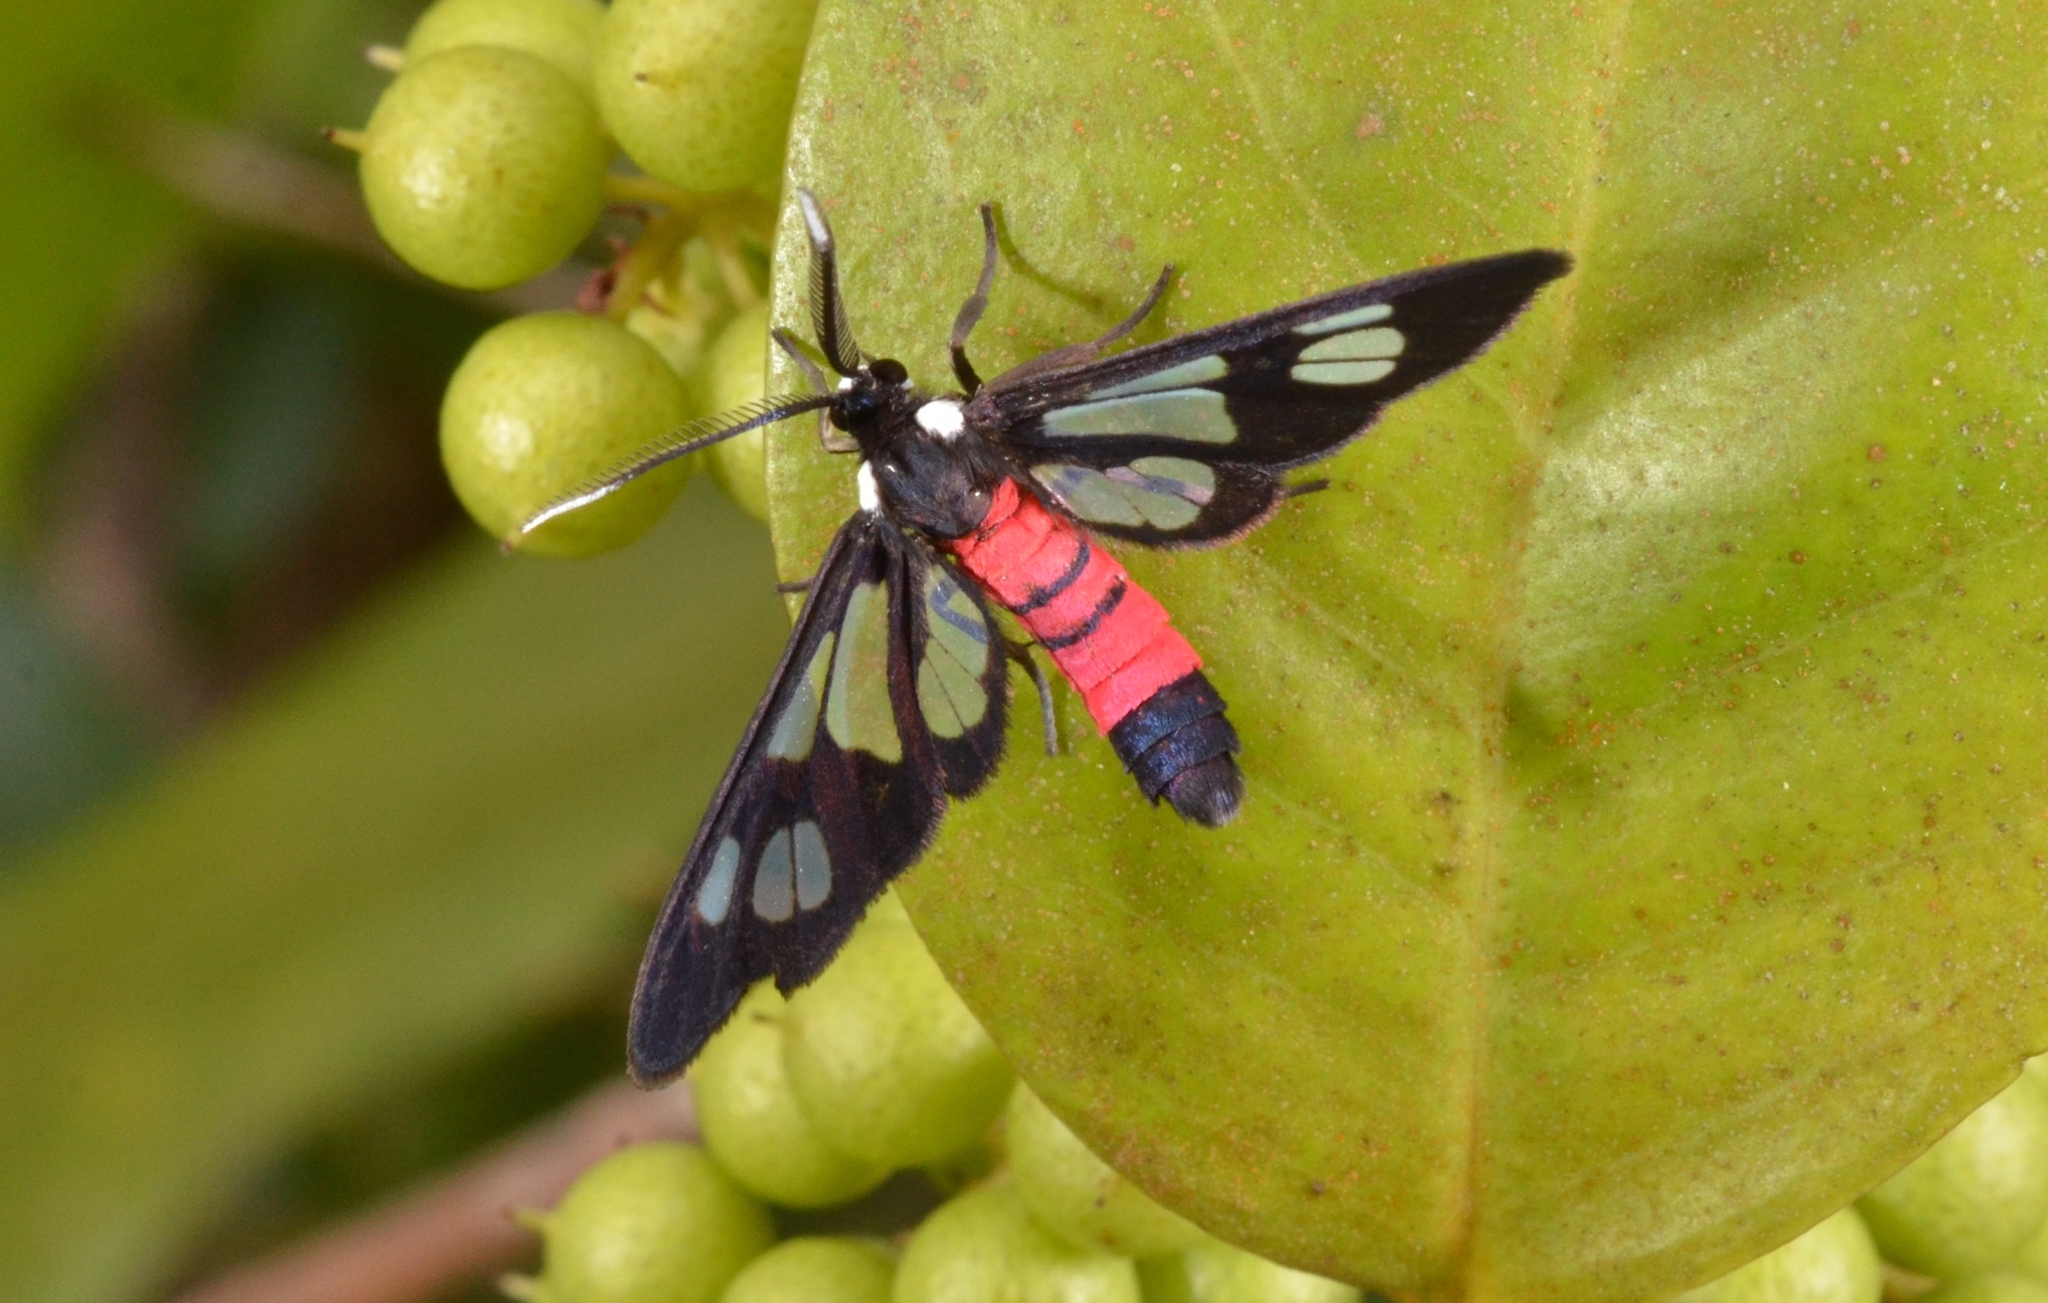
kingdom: Animalia
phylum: Arthropoda
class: Insecta
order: Lepidoptera
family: Erebidae
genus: Amata
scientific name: Amata fouqueti
